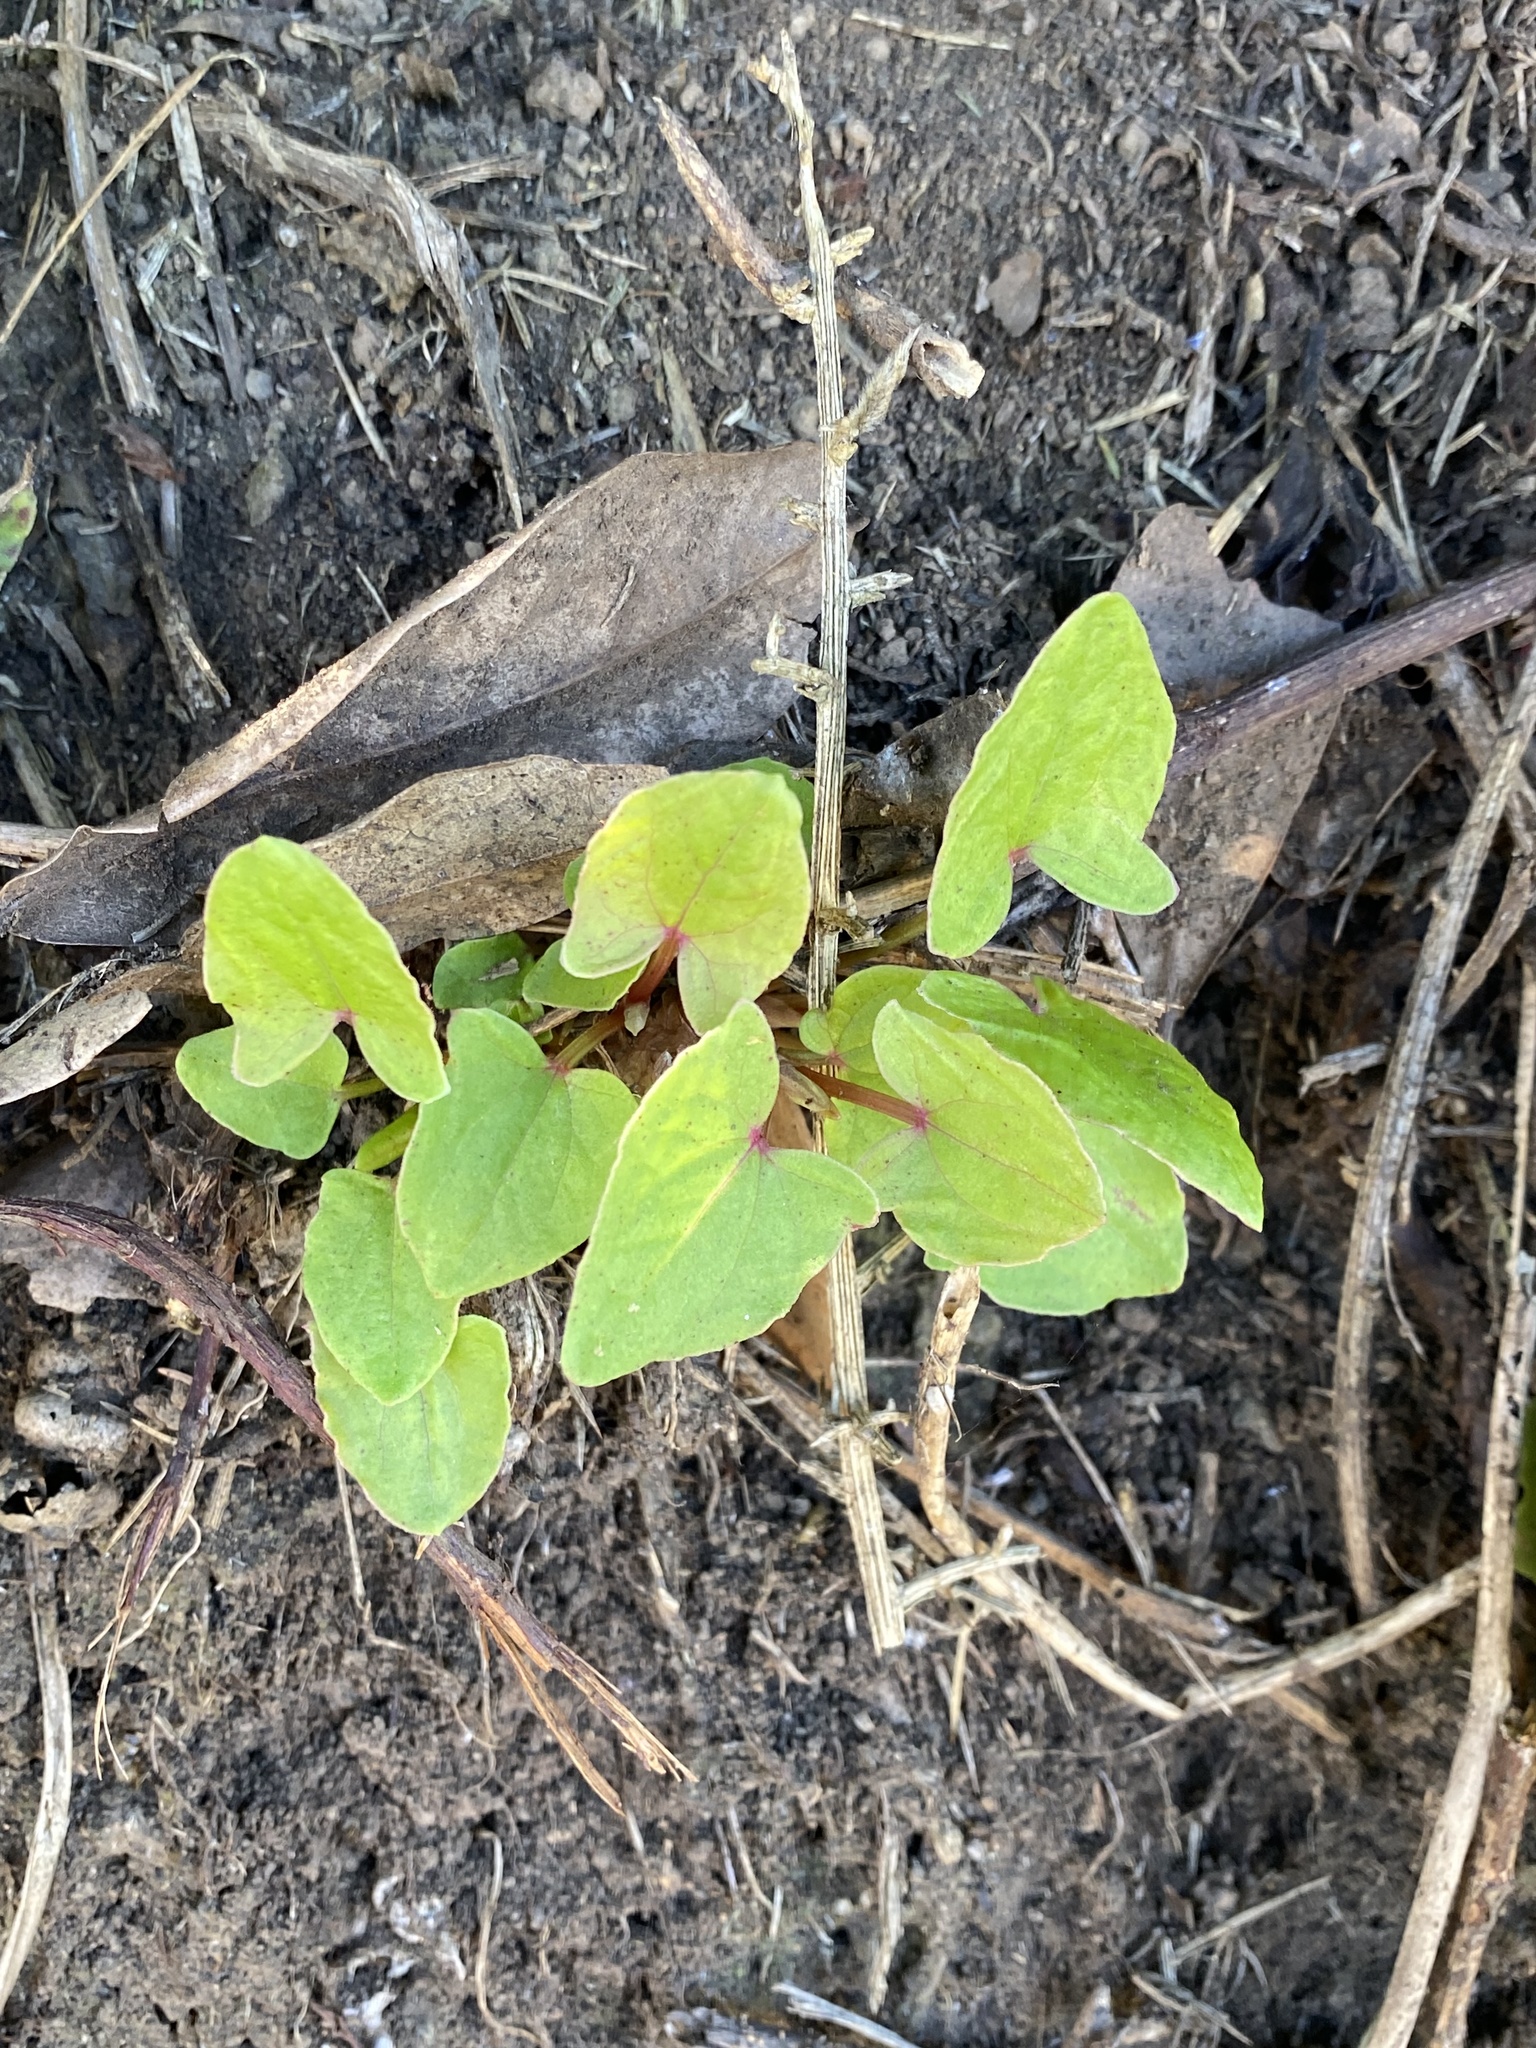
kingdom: Plantae
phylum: Tracheophyta
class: Magnoliopsida
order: Caryophyllales
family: Polygonaceae
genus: Rumex
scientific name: Rumex maderensis
